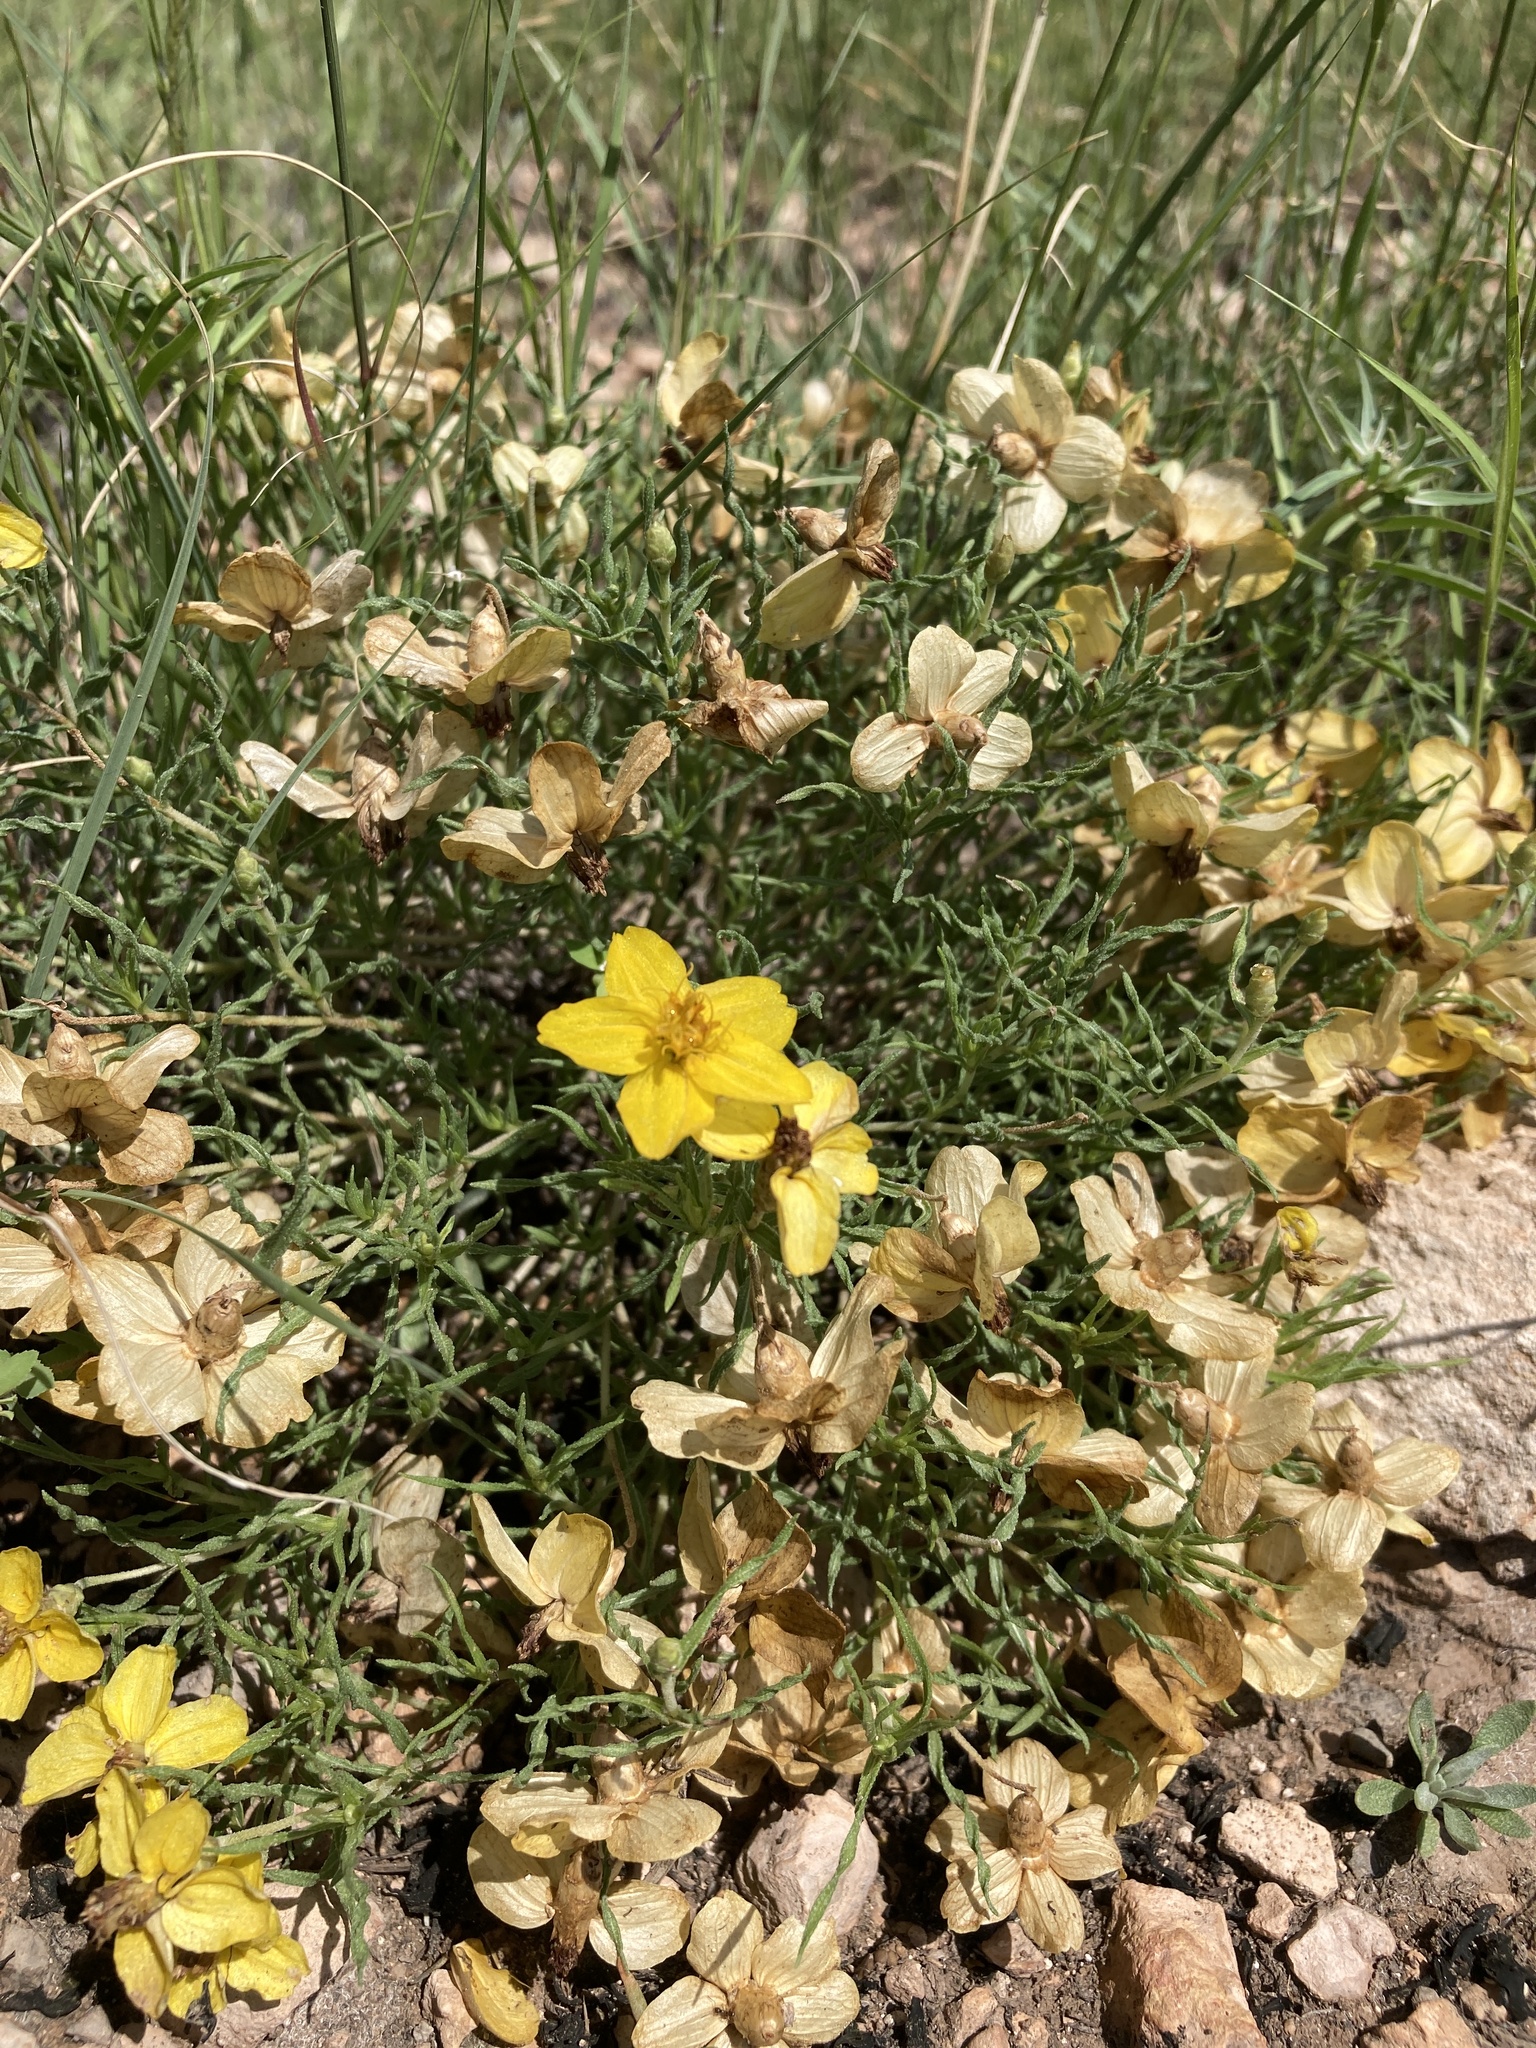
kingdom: Plantae
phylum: Tracheophyta
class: Magnoliopsida
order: Asterales
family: Asteraceae
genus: Zinnia
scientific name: Zinnia grandiflora
